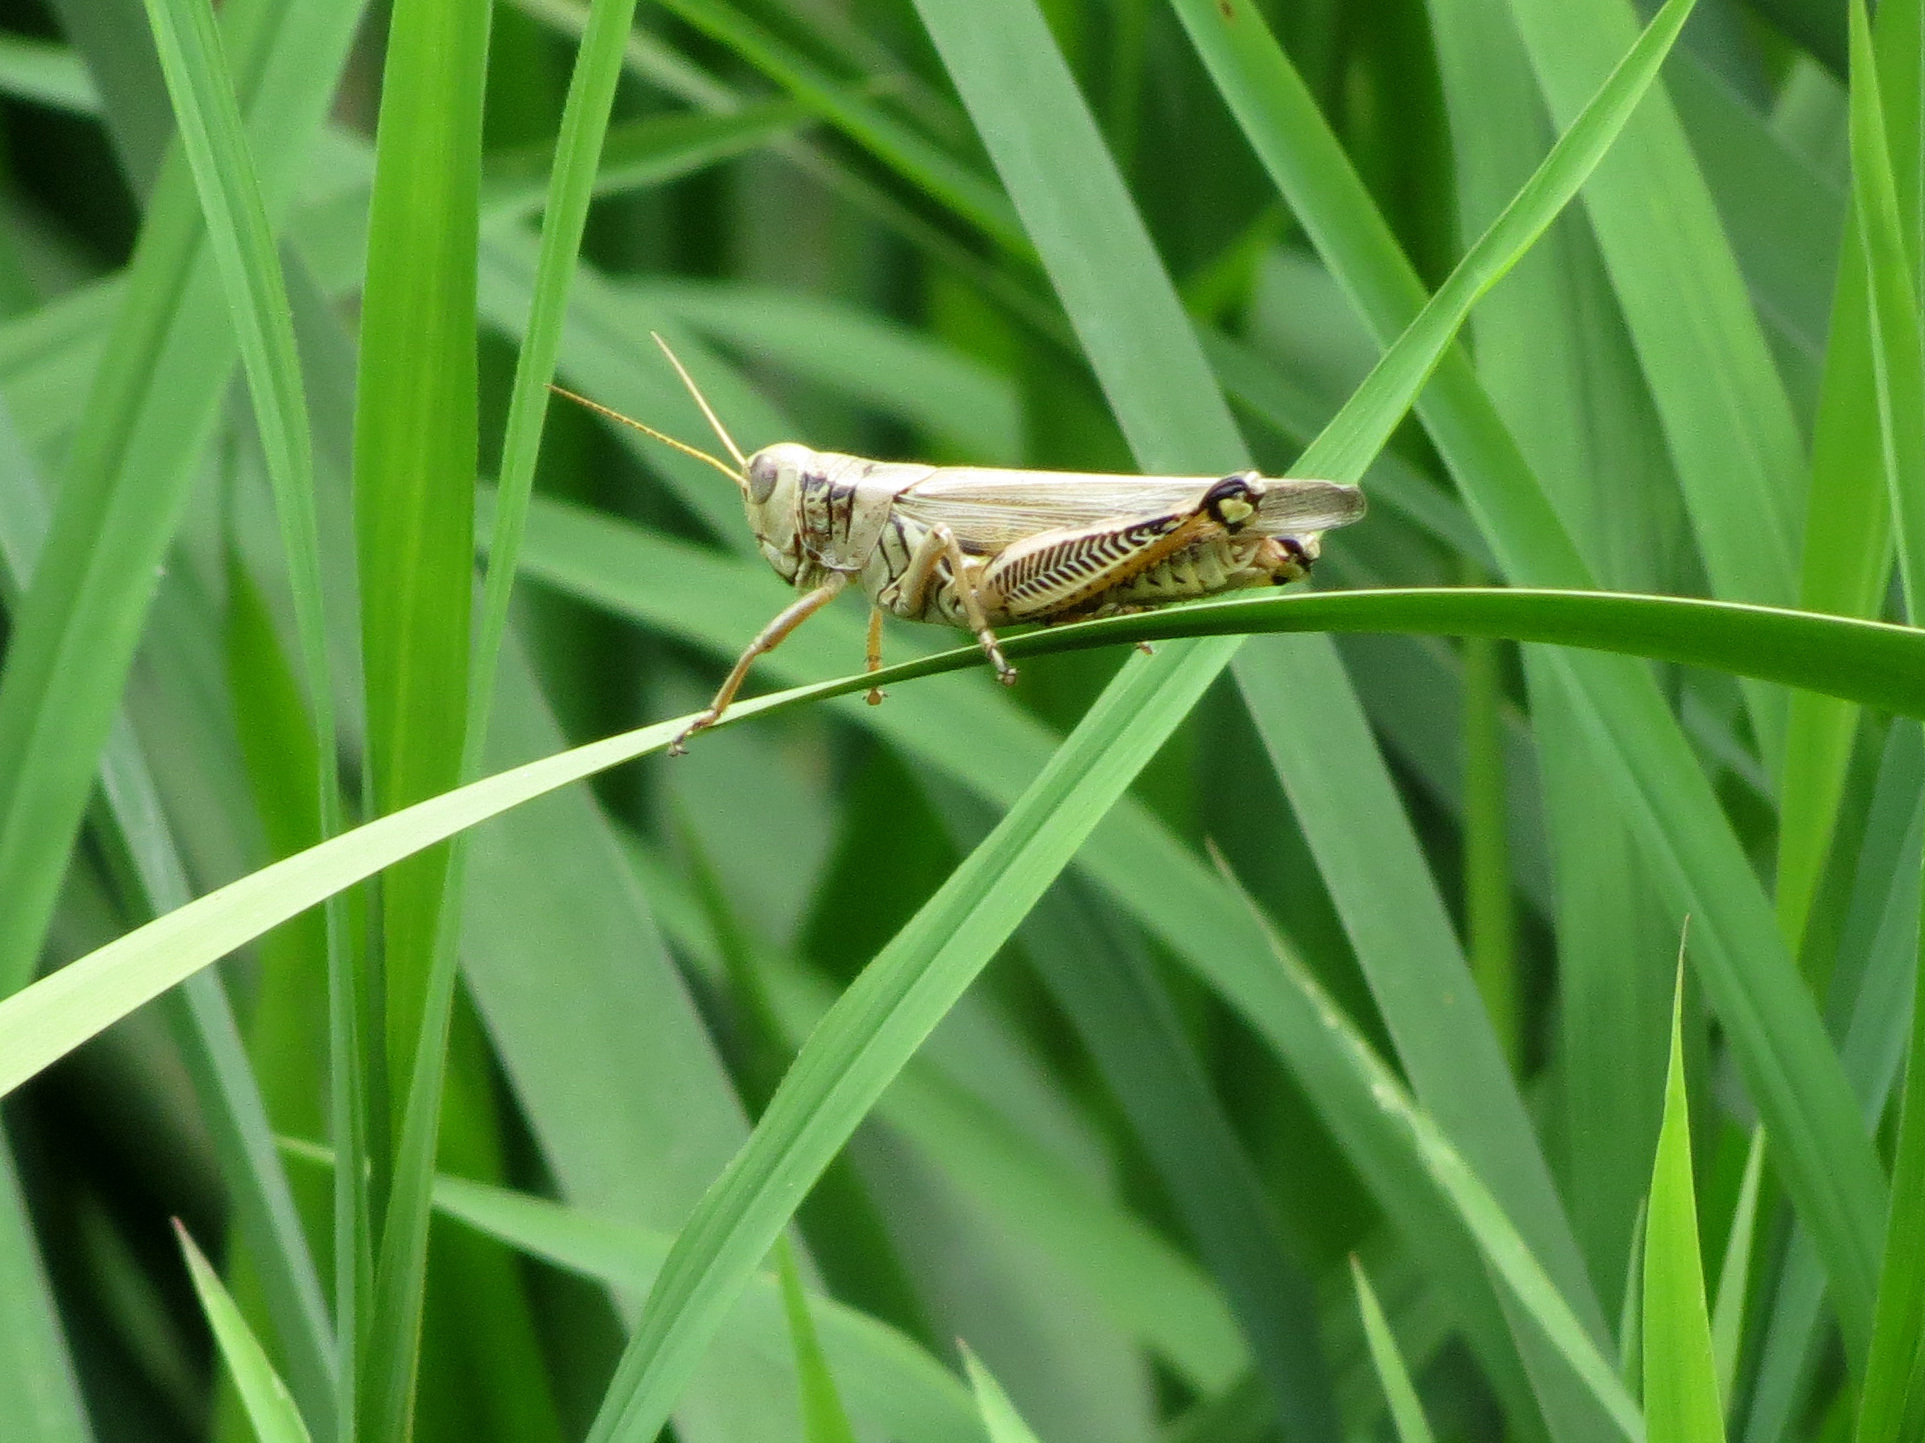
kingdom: Animalia
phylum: Arthropoda
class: Insecta
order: Orthoptera
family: Acrididae
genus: Melanoplus
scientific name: Melanoplus differentialis
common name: Differential grasshopper
